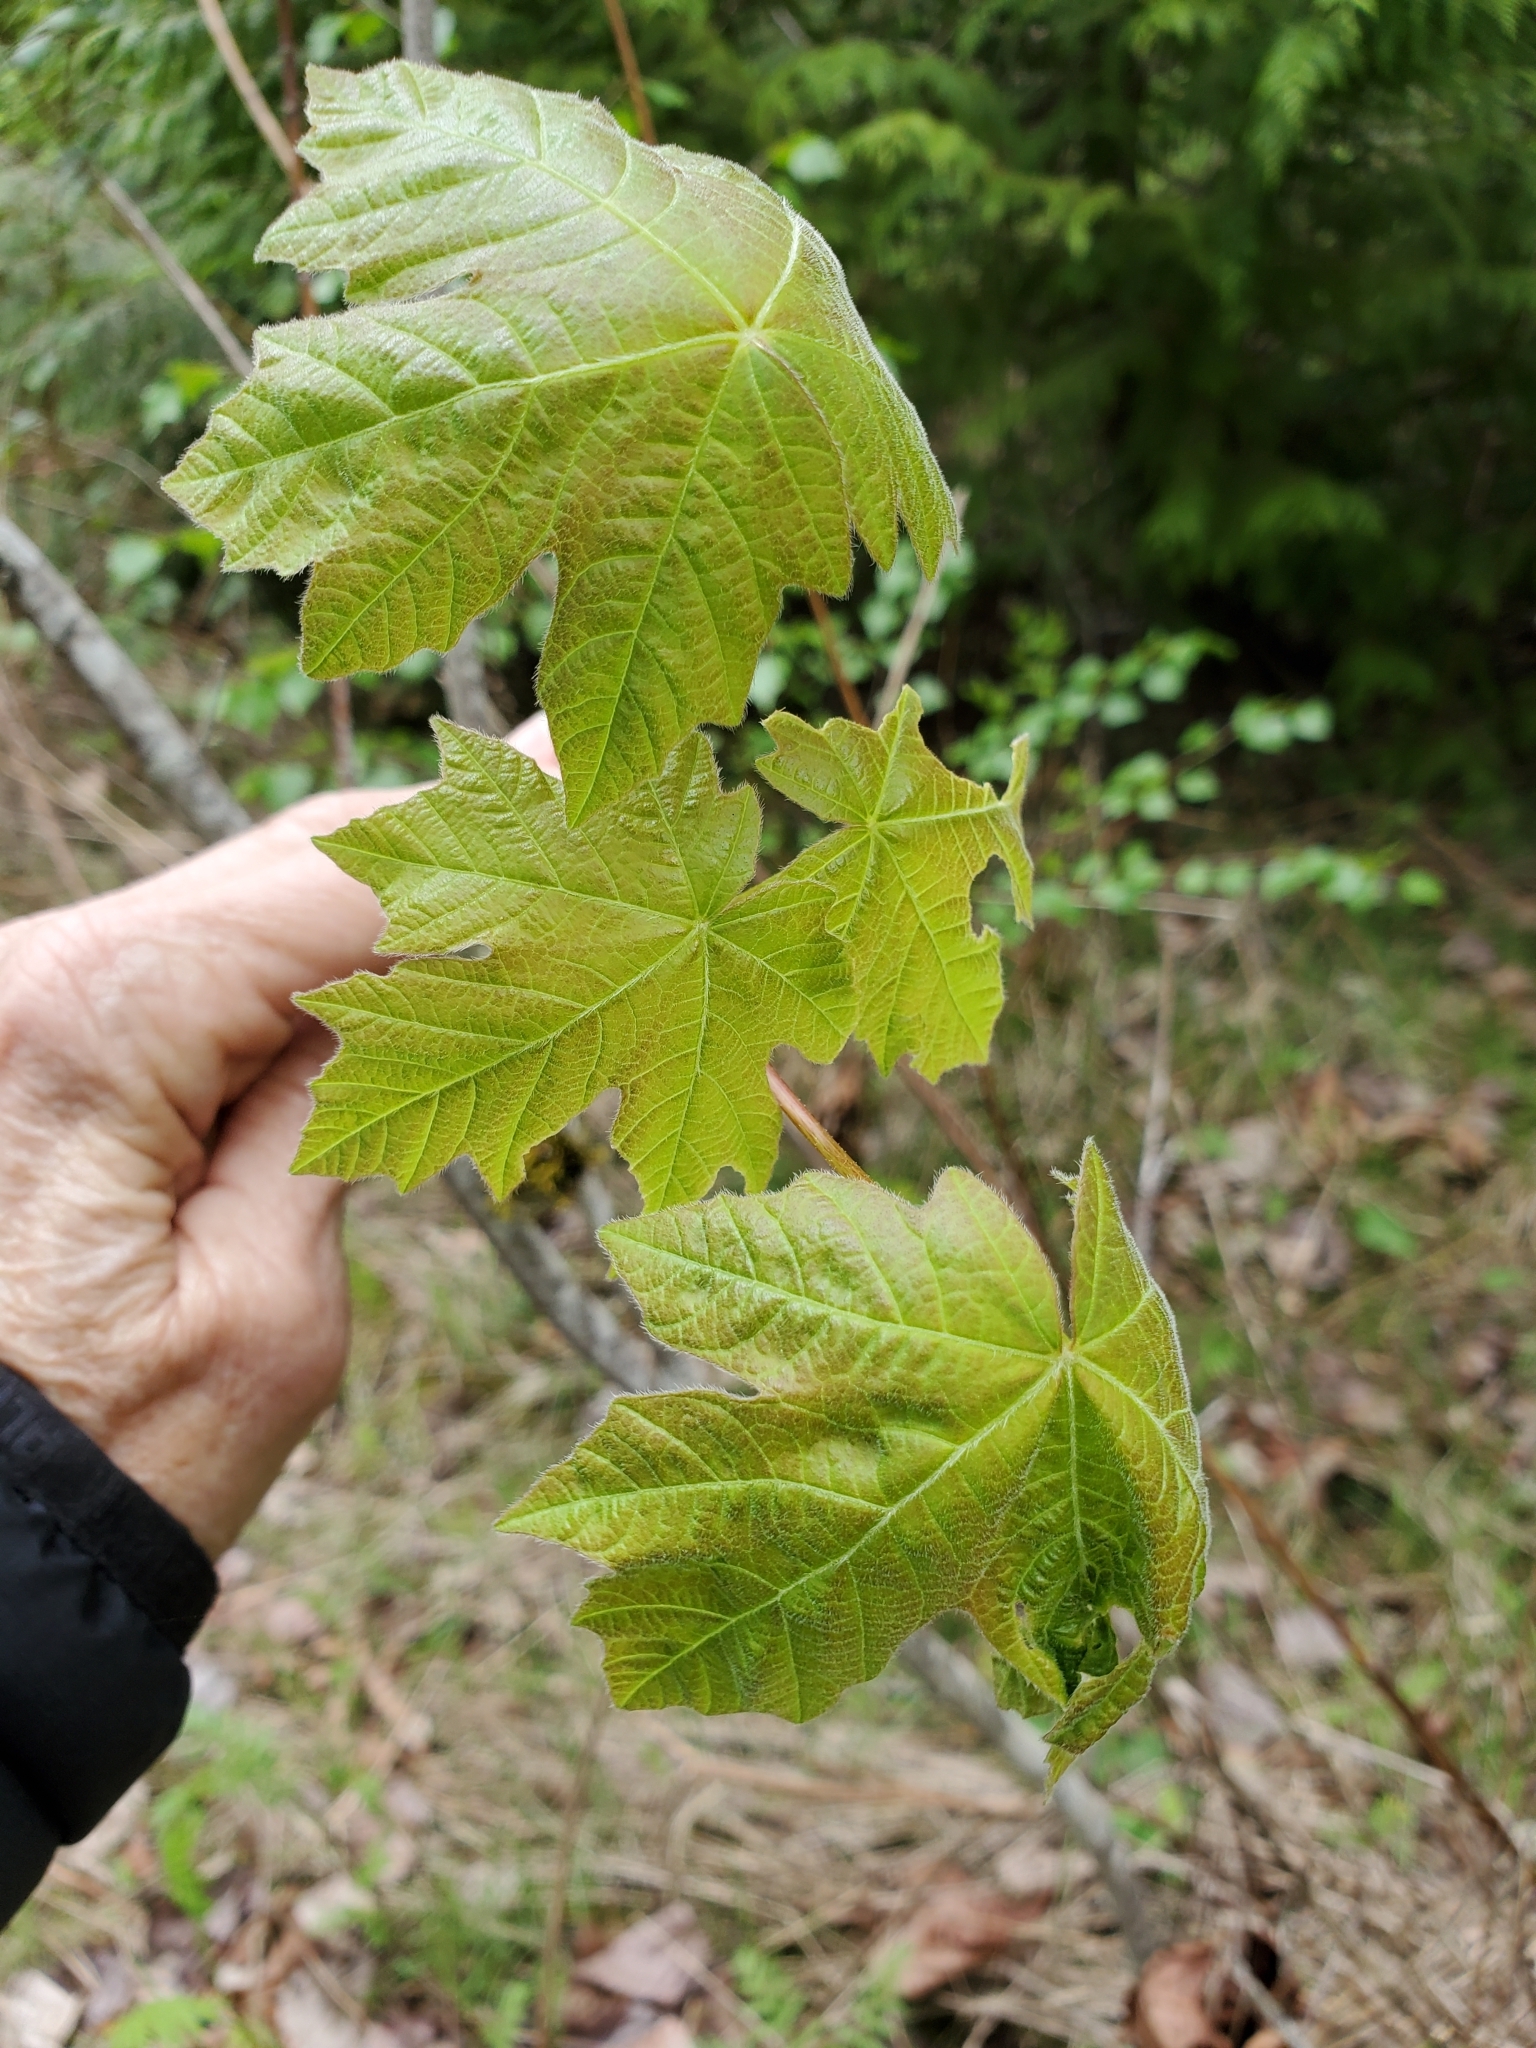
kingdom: Plantae
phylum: Tracheophyta
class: Magnoliopsida
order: Sapindales
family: Sapindaceae
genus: Acer
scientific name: Acer macrophyllum
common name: Oregon maple
